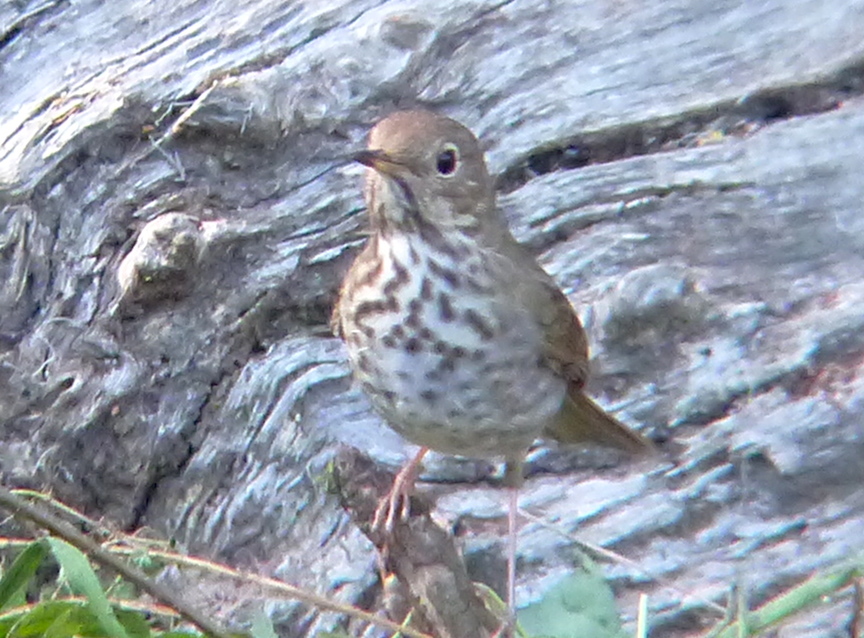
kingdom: Animalia
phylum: Chordata
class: Aves
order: Passeriformes
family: Turdidae
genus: Catharus
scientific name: Catharus guttatus
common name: Hermit thrush
